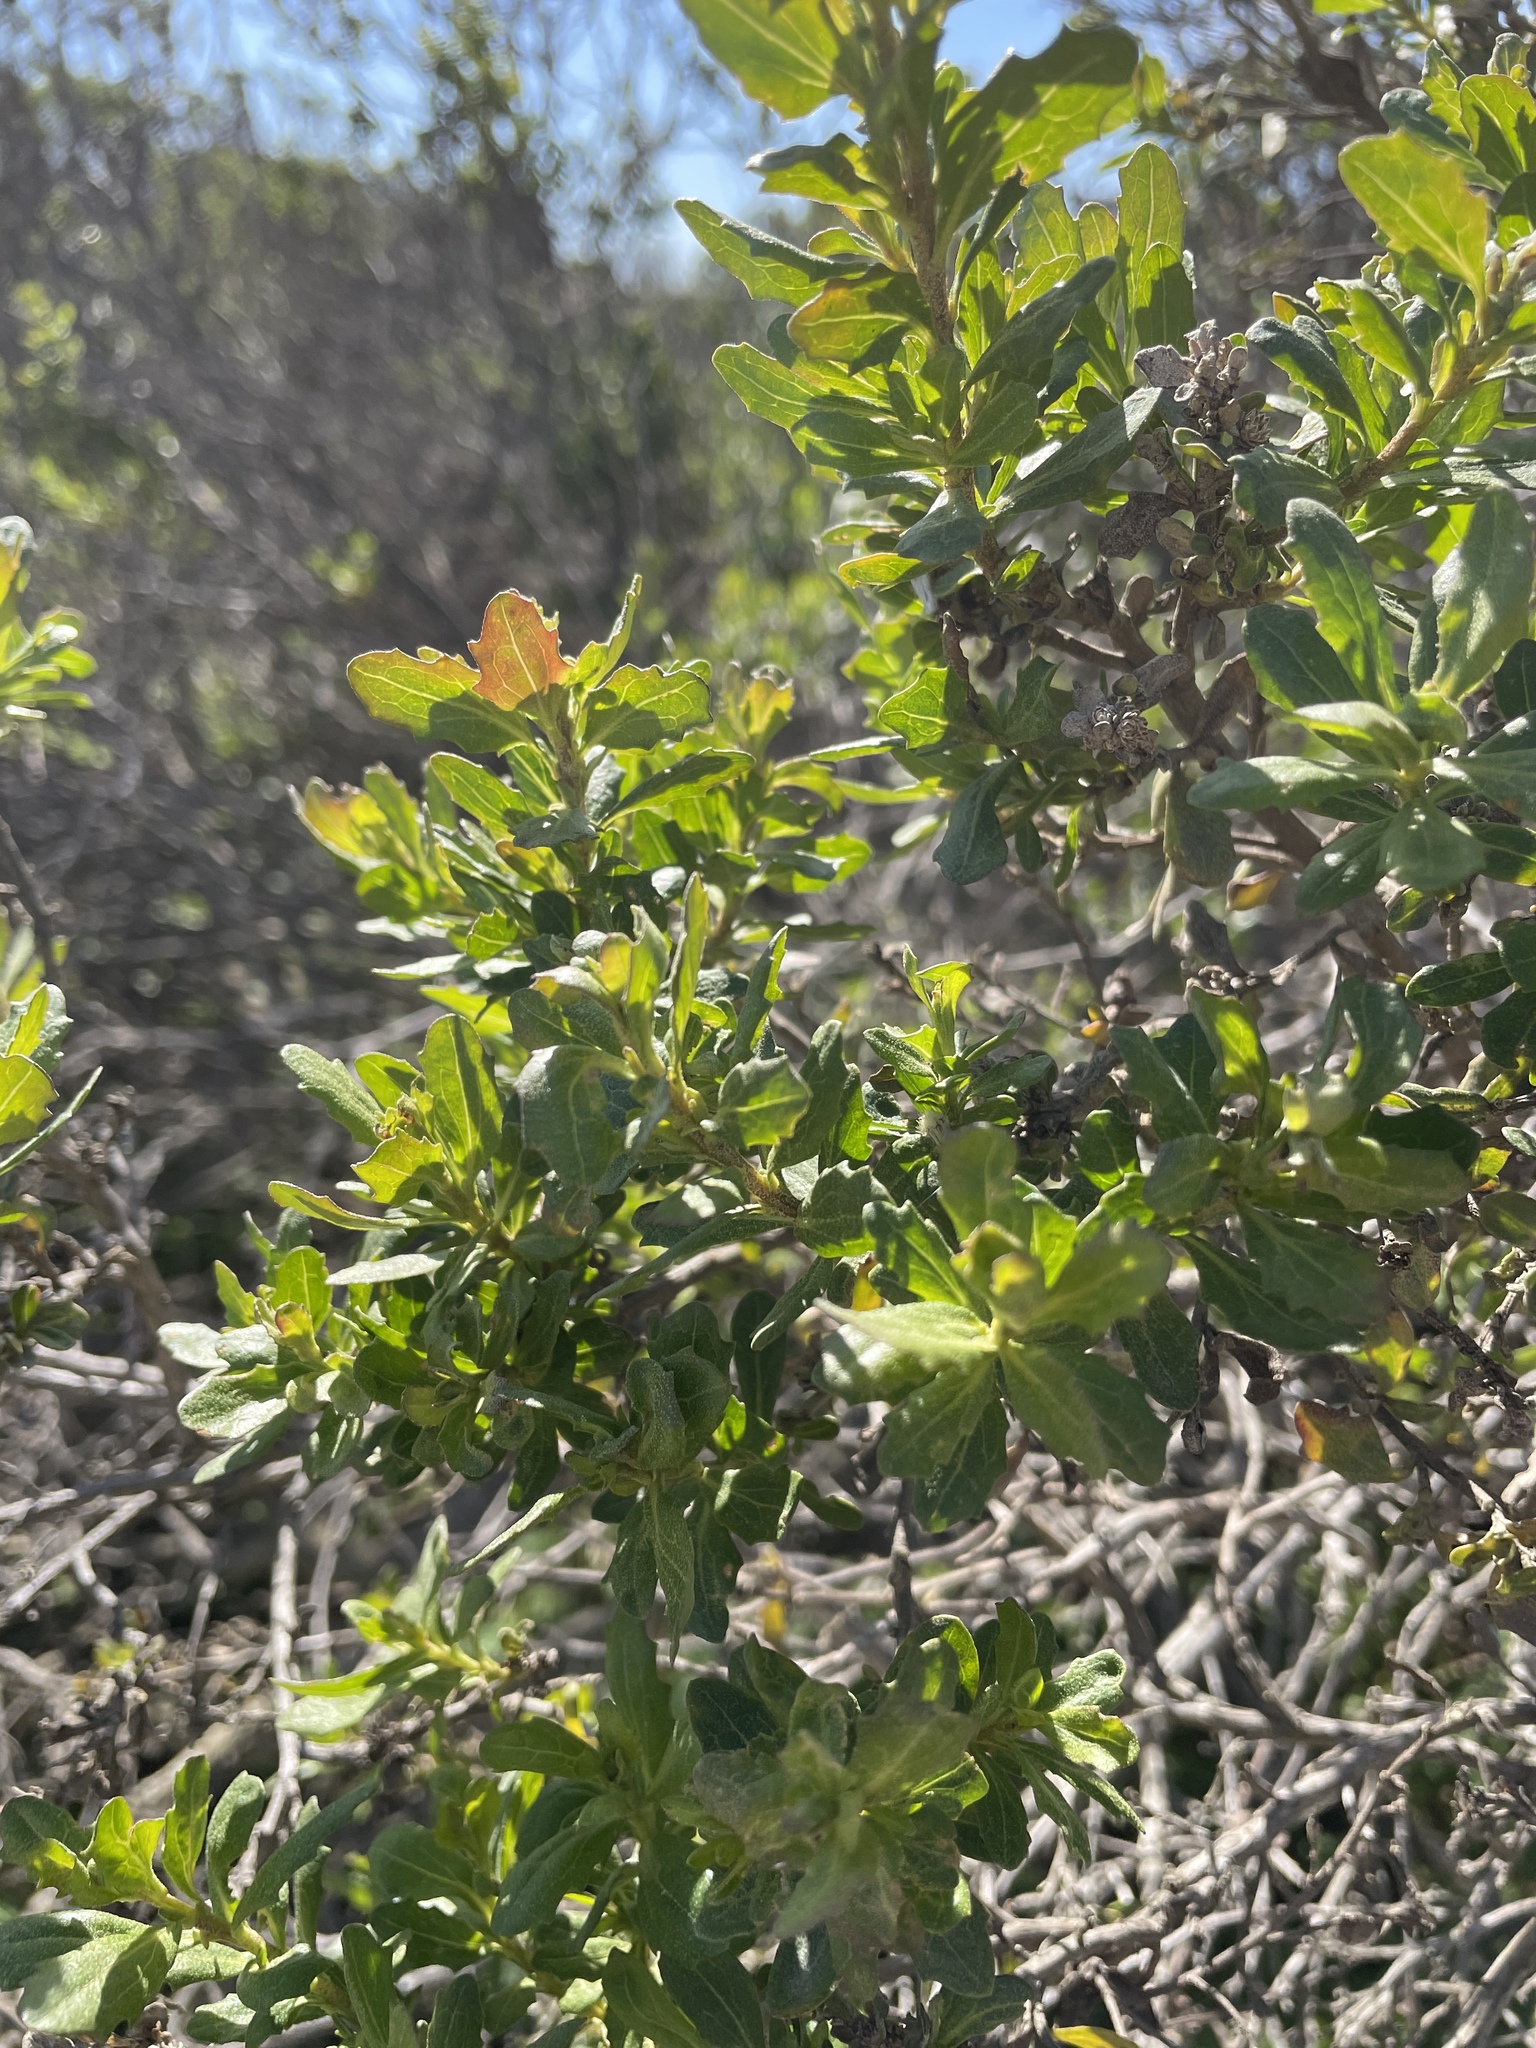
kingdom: Plantae
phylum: Tracheophyta
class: Magnoliopsida
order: Asterales
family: Asteraceae
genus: Baccharis
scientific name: Baccharis pilularis
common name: Coyotebrush
